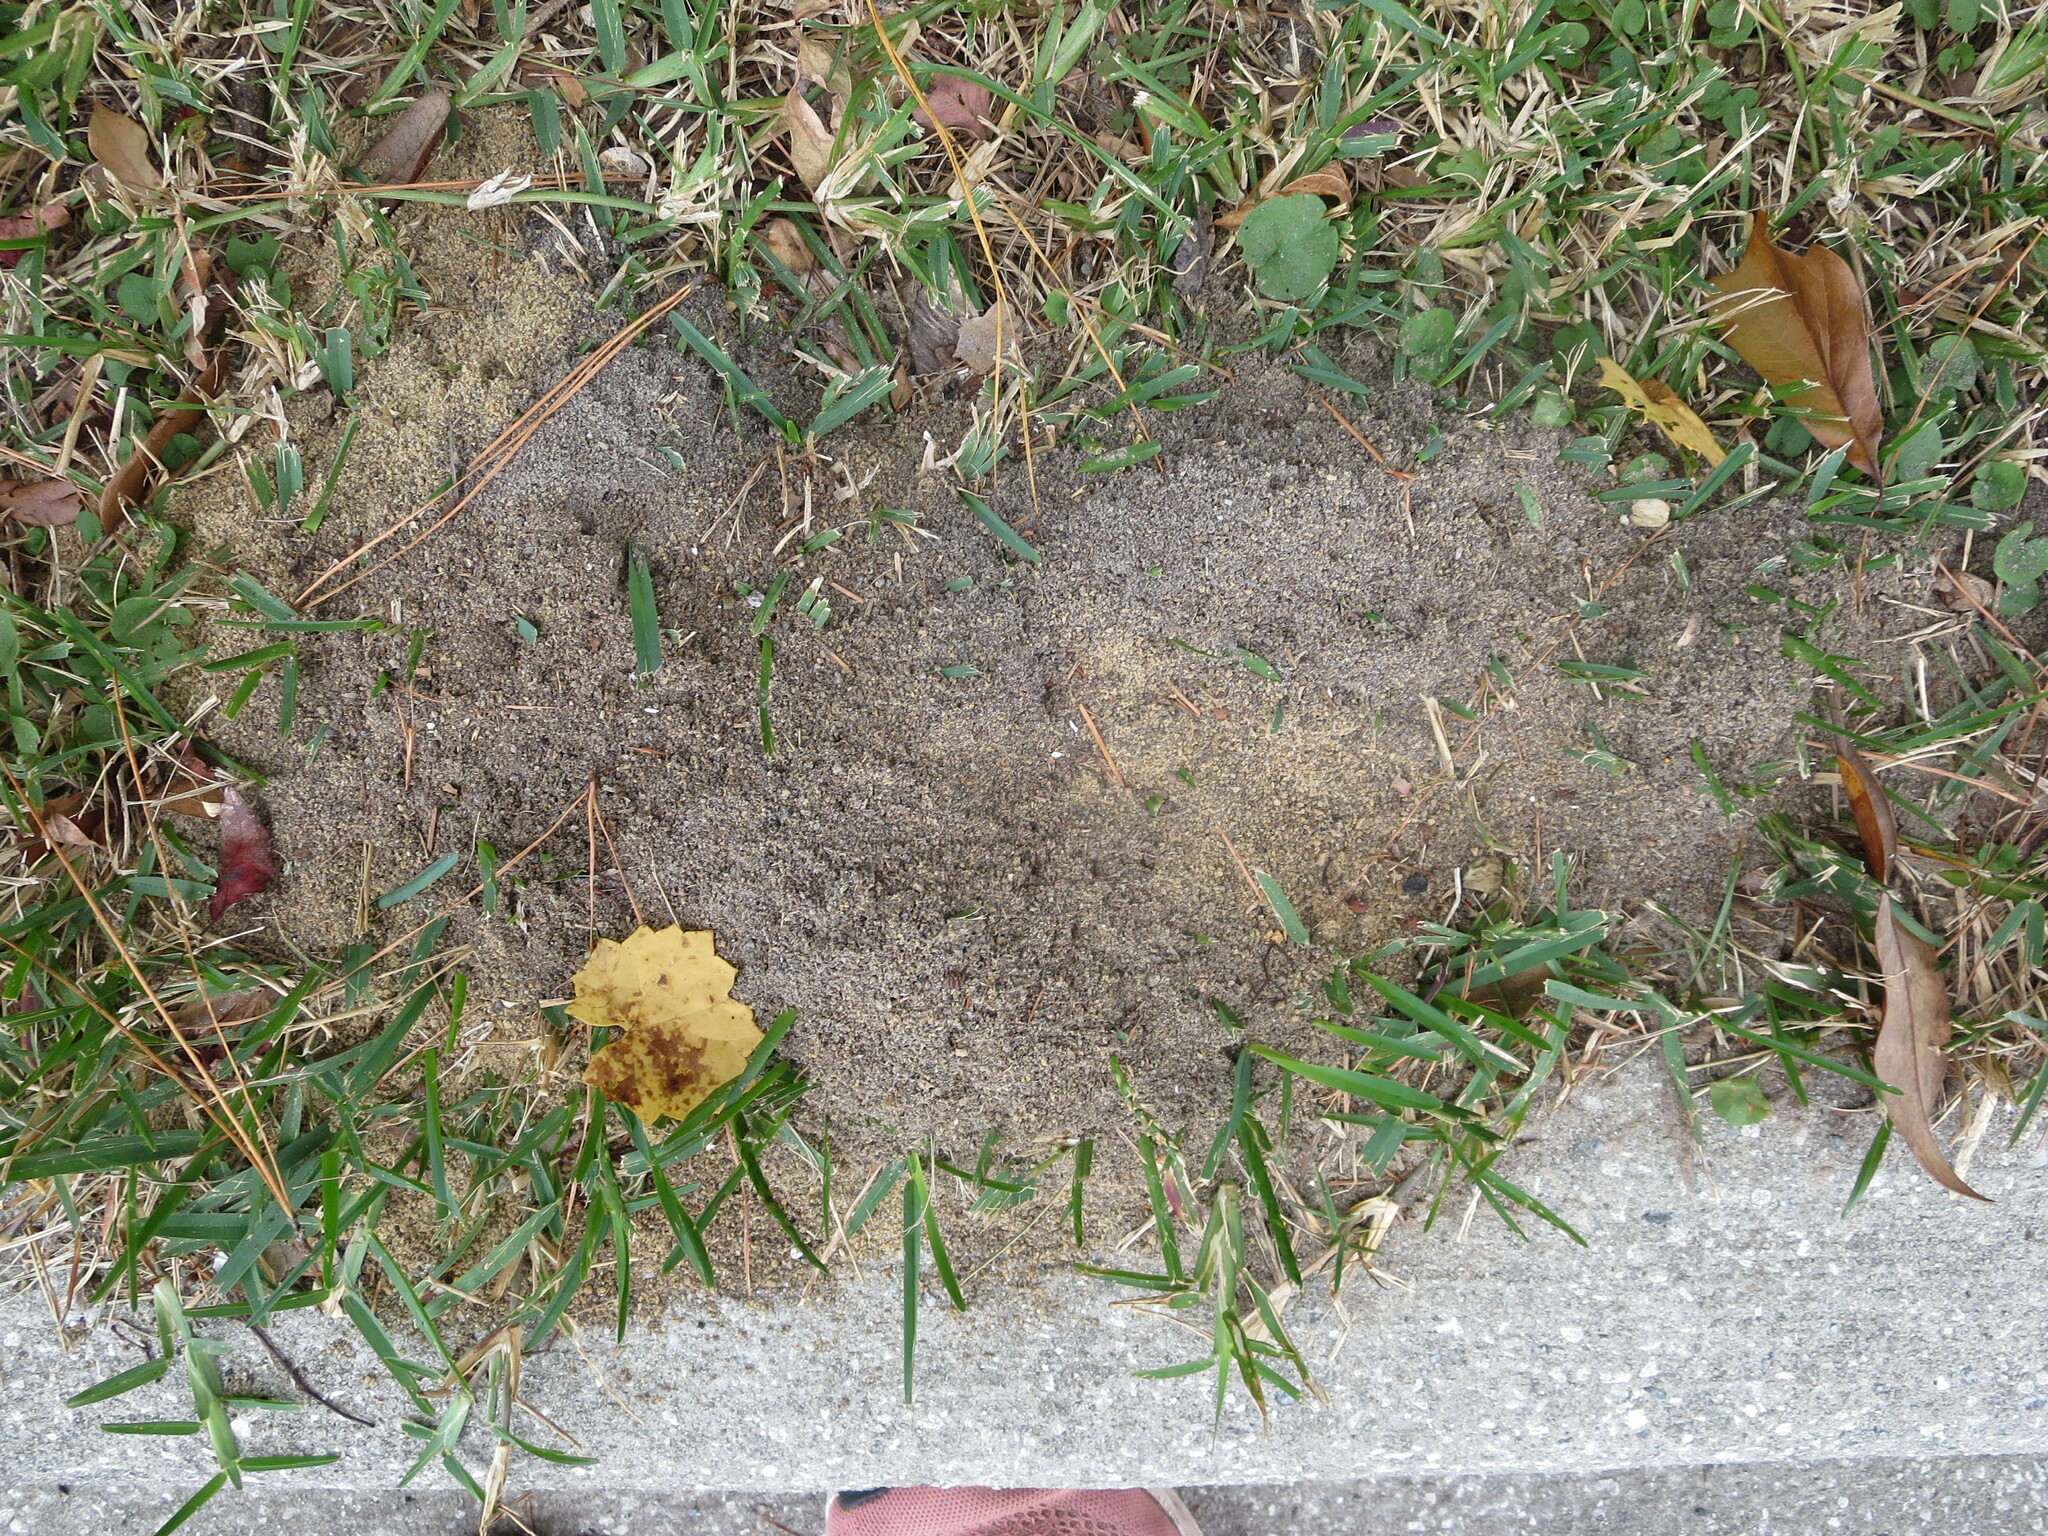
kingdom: Animalia
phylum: Arthropoda
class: Insecta
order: Hymenoptera
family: Formicidae
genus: Solenopsis
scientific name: Solenopsis invicta
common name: Red imported fire ant
